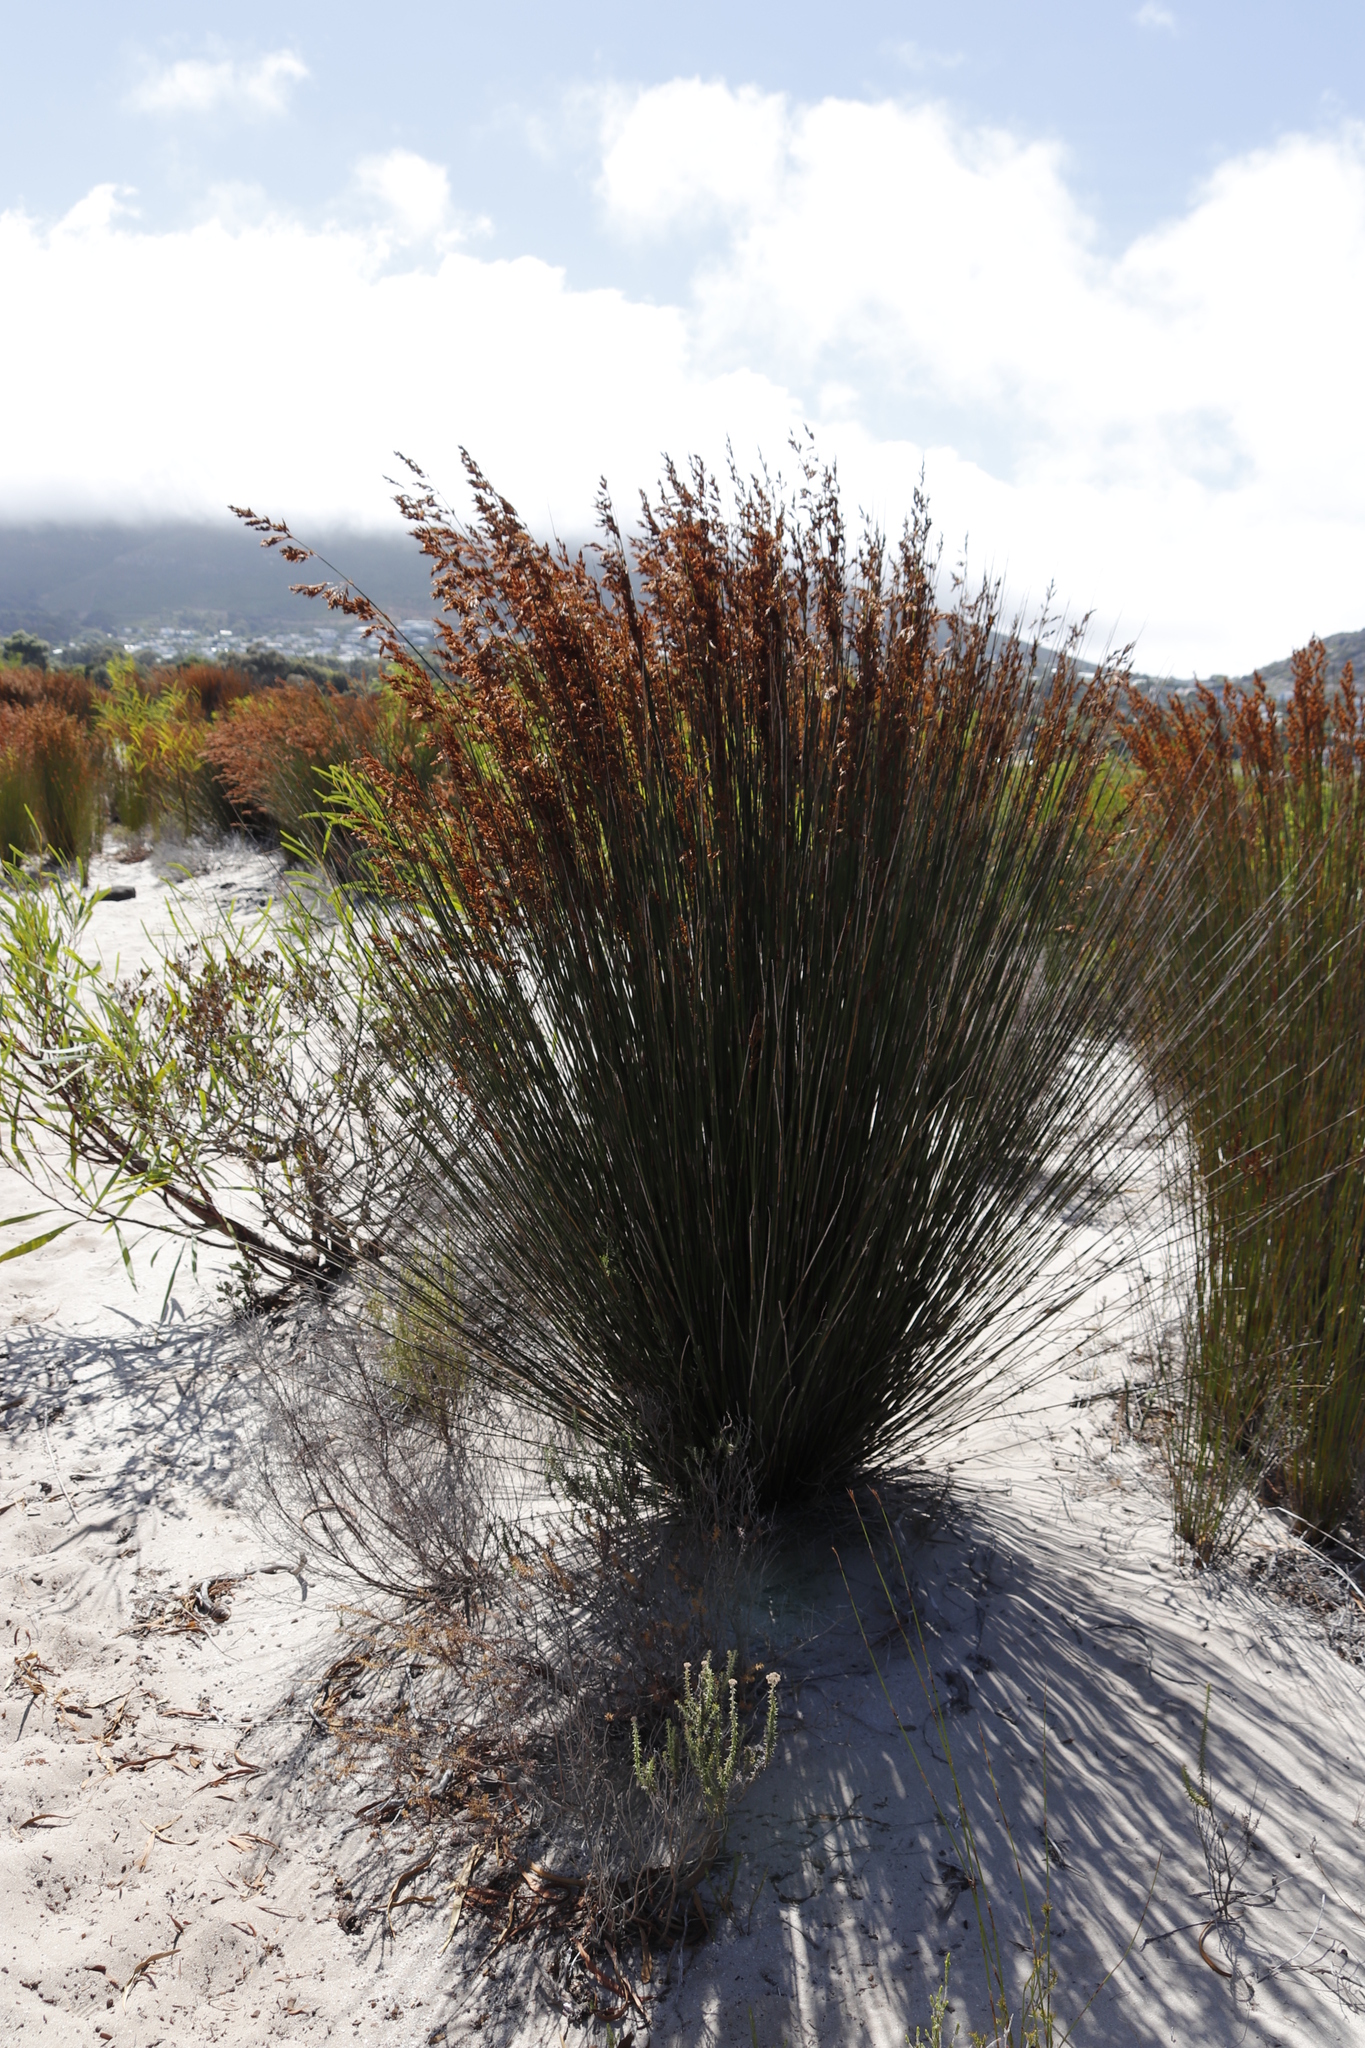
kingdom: Plantae
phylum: Tracheophyta
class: Liliopsida
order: Poales
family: Restionaceae
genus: Thamnochortus
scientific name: Thamnochortus spicigerus
